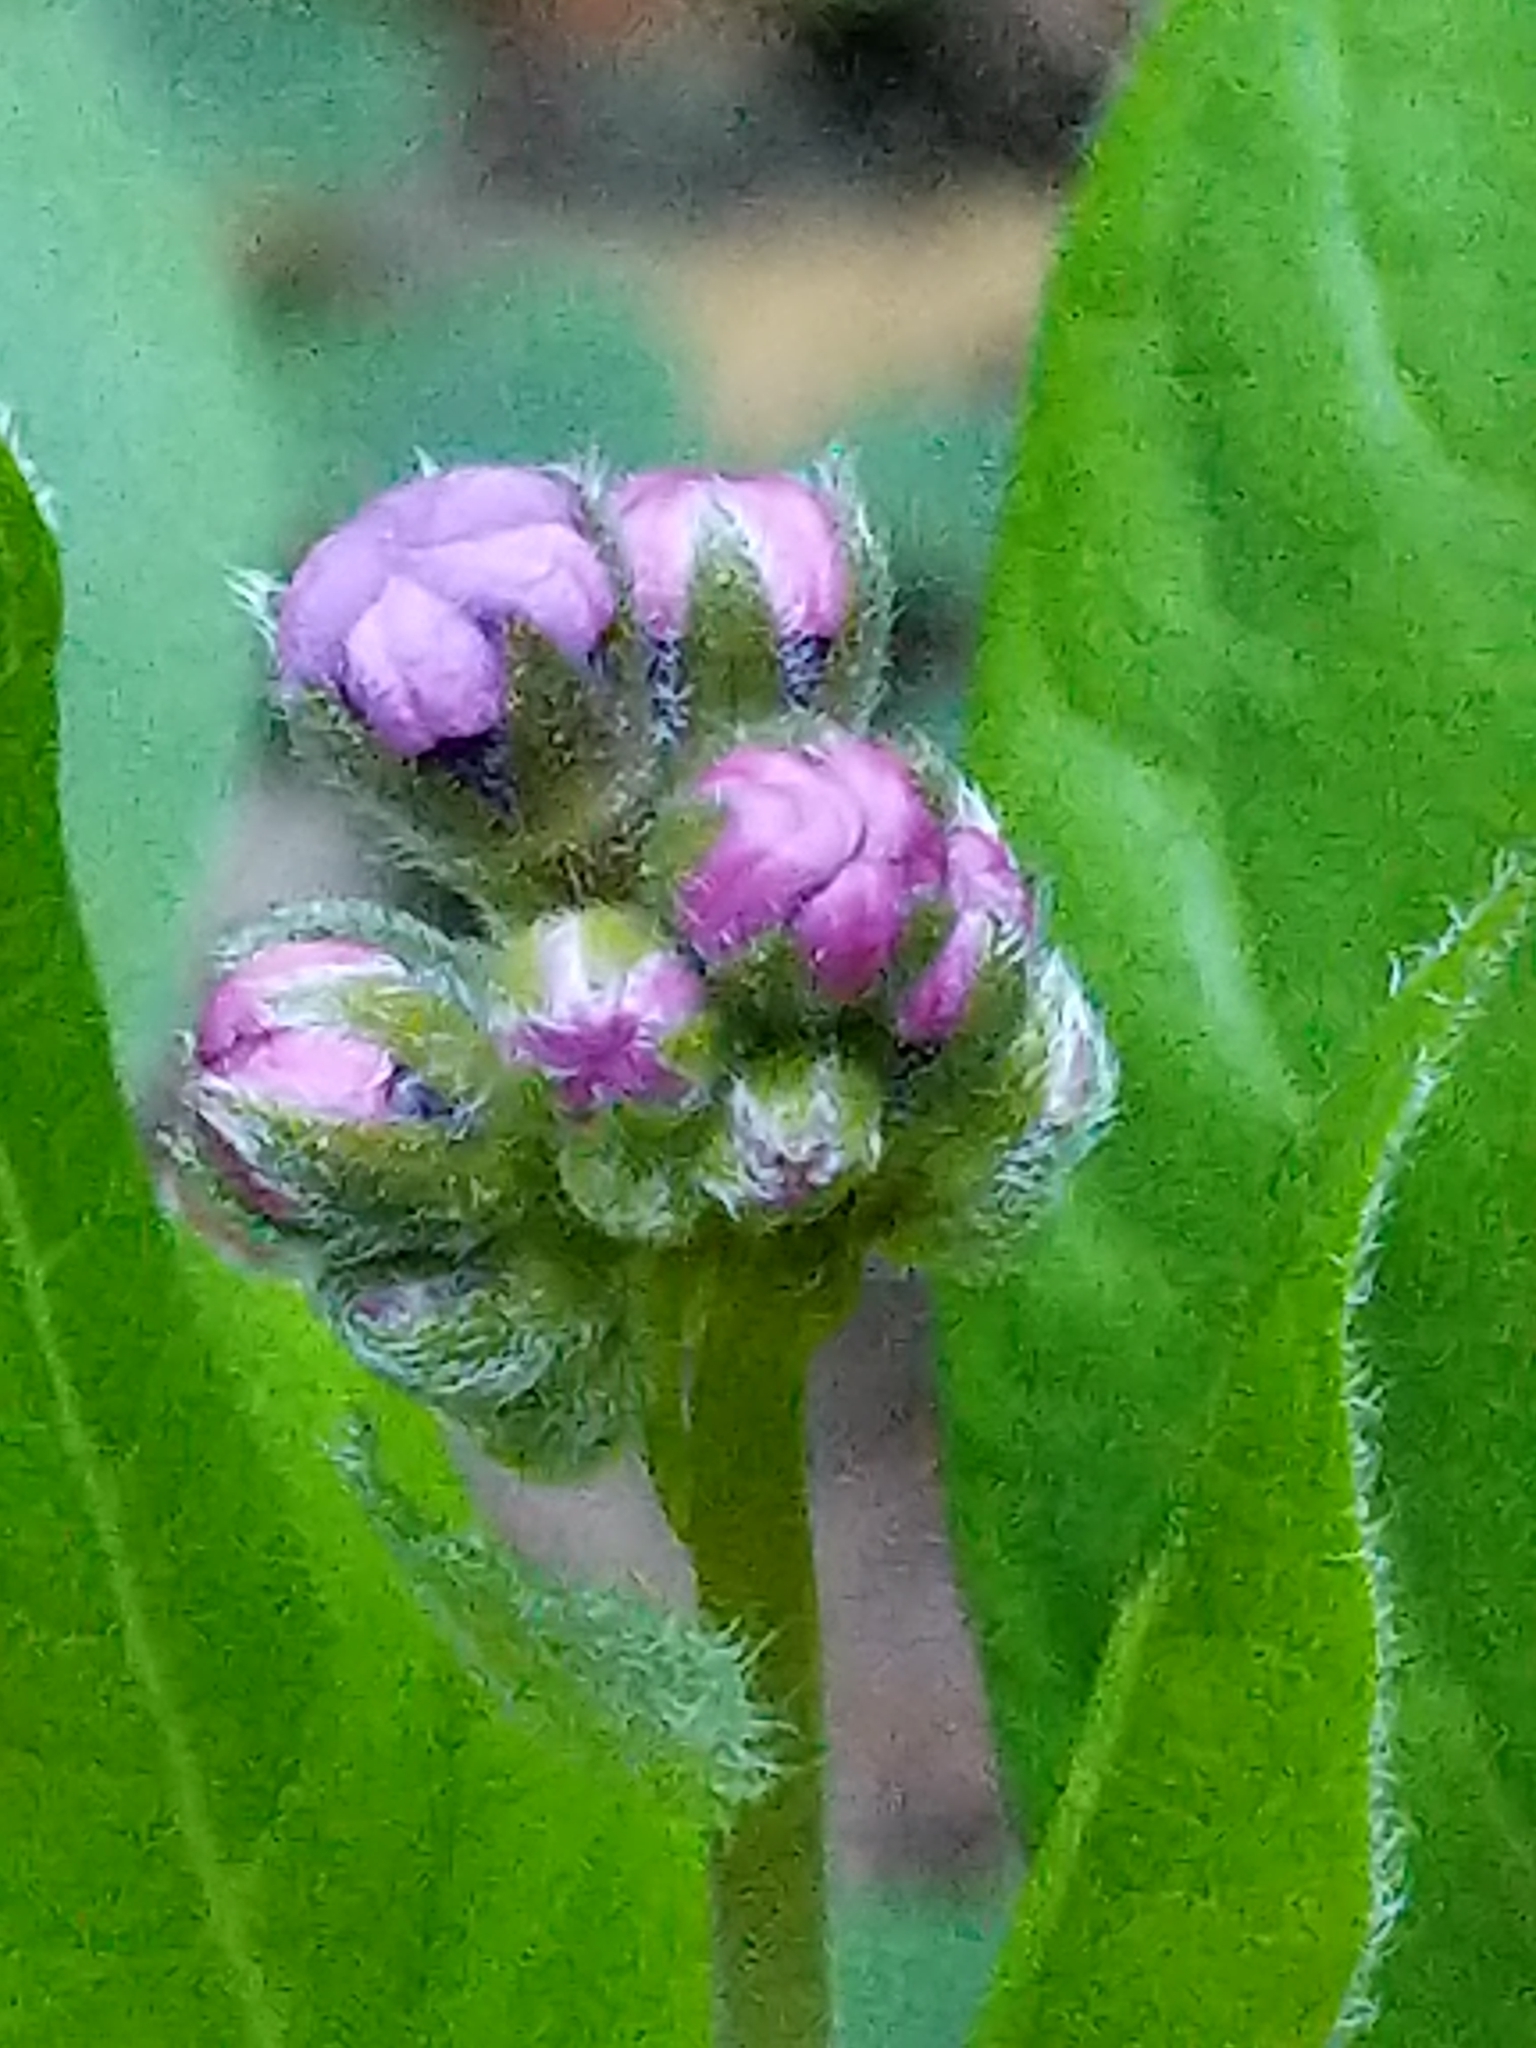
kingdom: Plantae
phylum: Tracheophyta
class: Magnoliopsida
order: Boraginales
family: Boraginaceae
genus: Adelinia
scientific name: Adelinia grande
